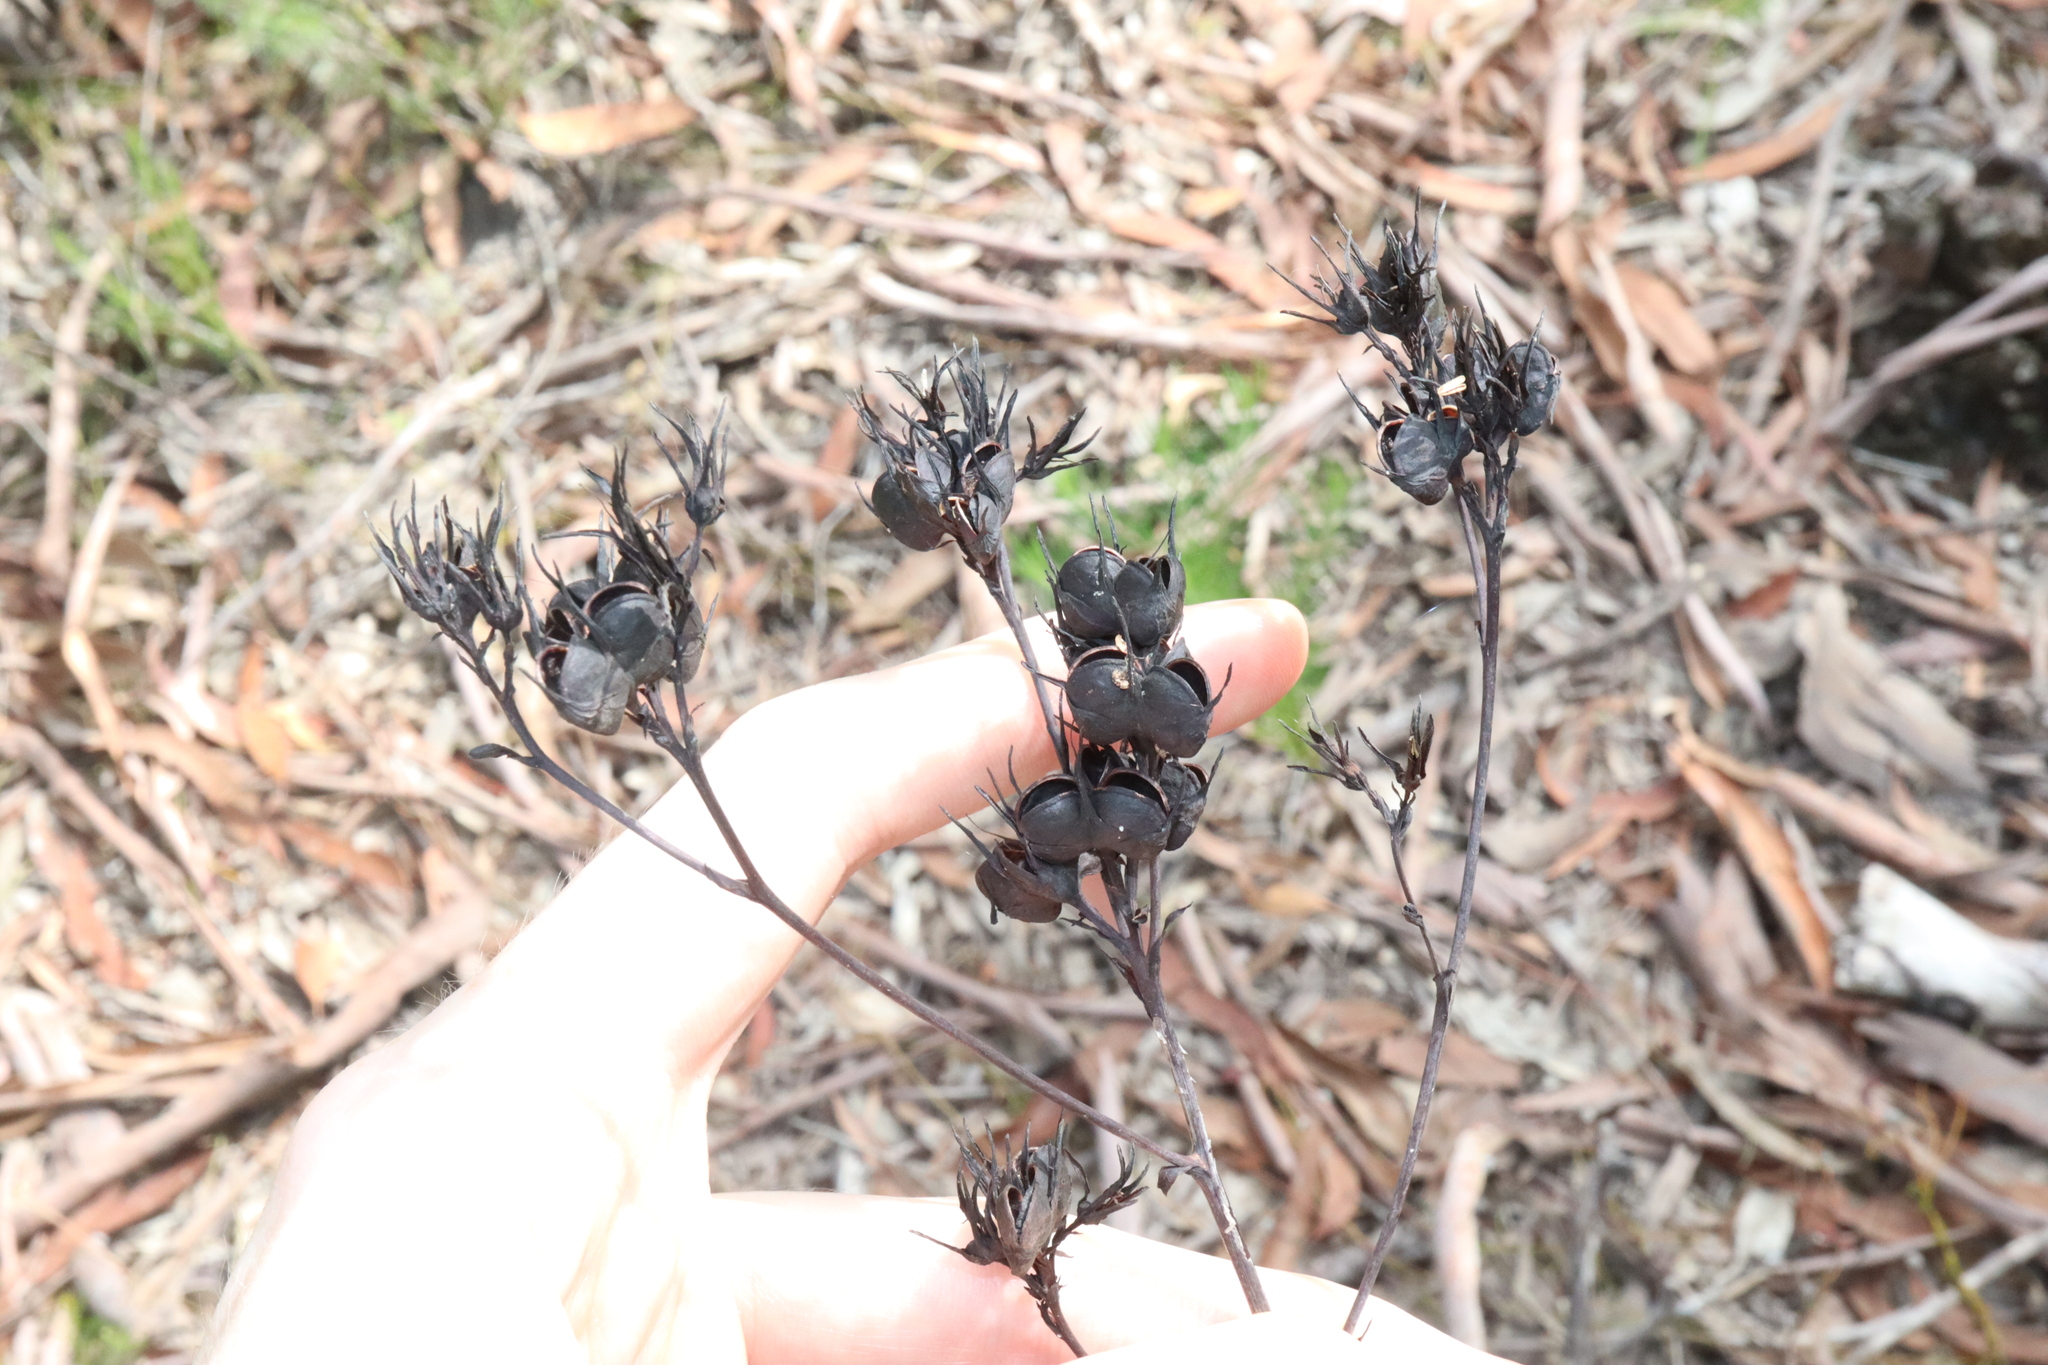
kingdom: Plantae
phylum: Tracheophyta
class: Liliopsida
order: Commelinales
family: Haemodoraceae
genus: Haemodorum
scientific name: Haemodorum planifolium
